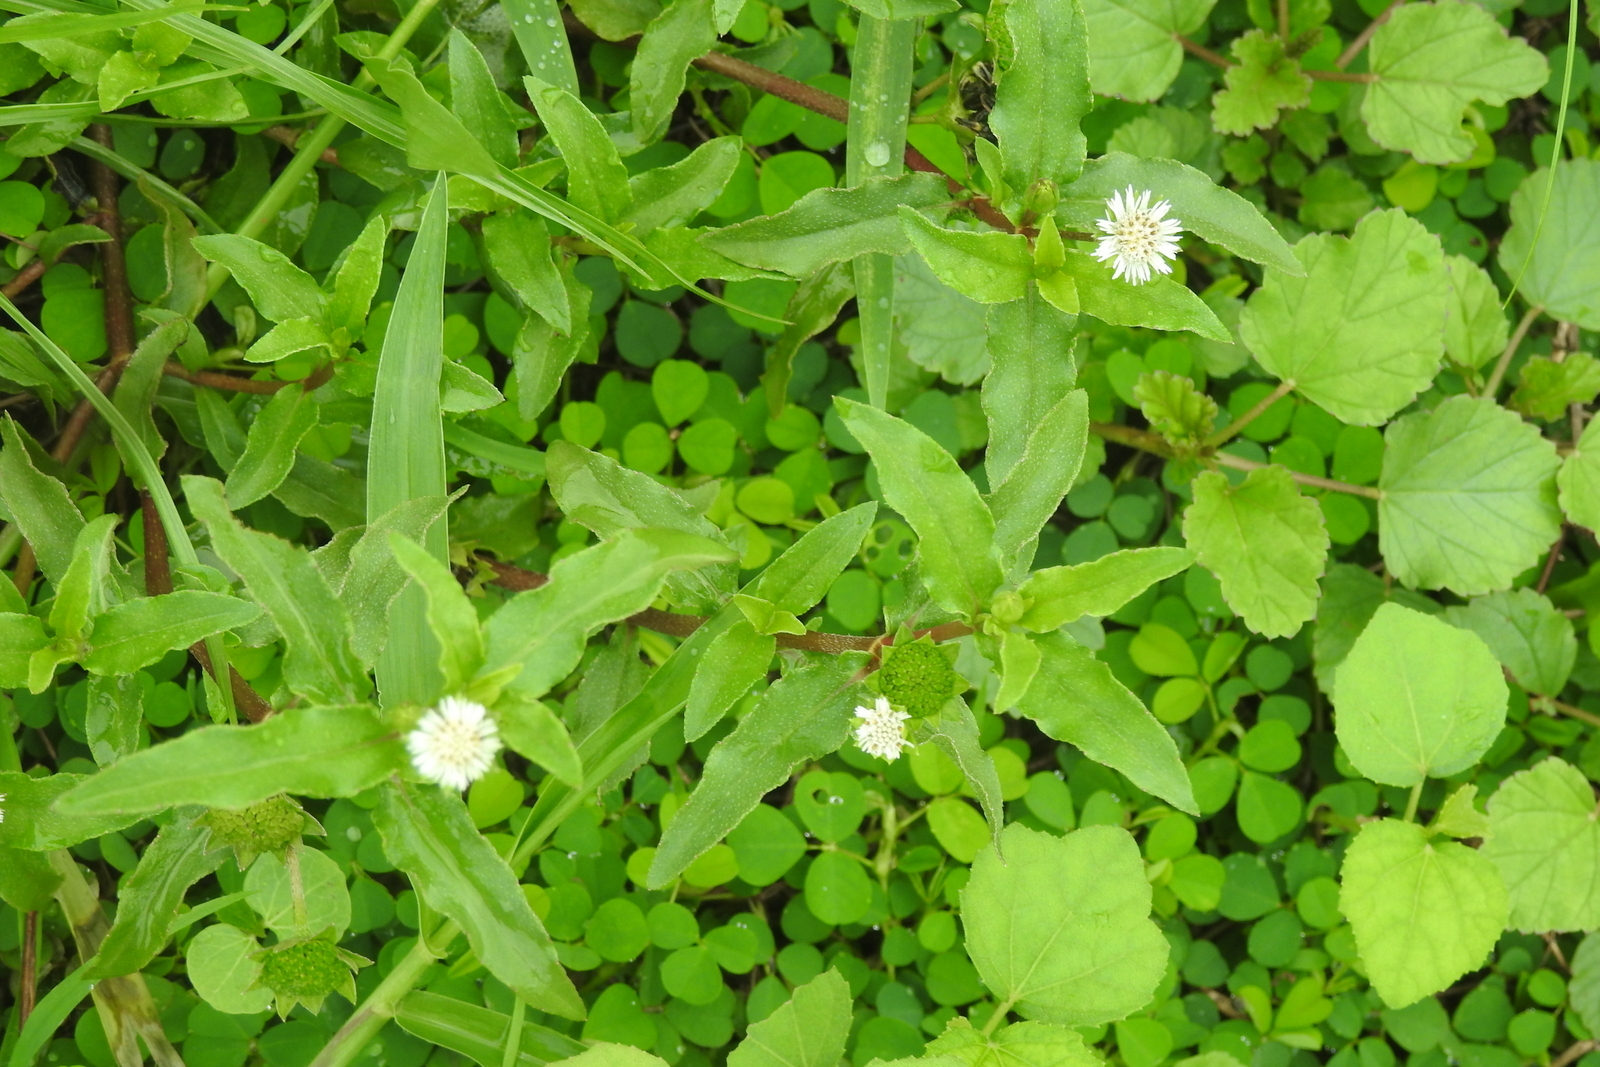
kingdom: Plantae
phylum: Tracheophyta
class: Magnoliopsida
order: Asterales
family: Asteraceae
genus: Eclipta
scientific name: Eclipta prostrata
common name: False daisy
